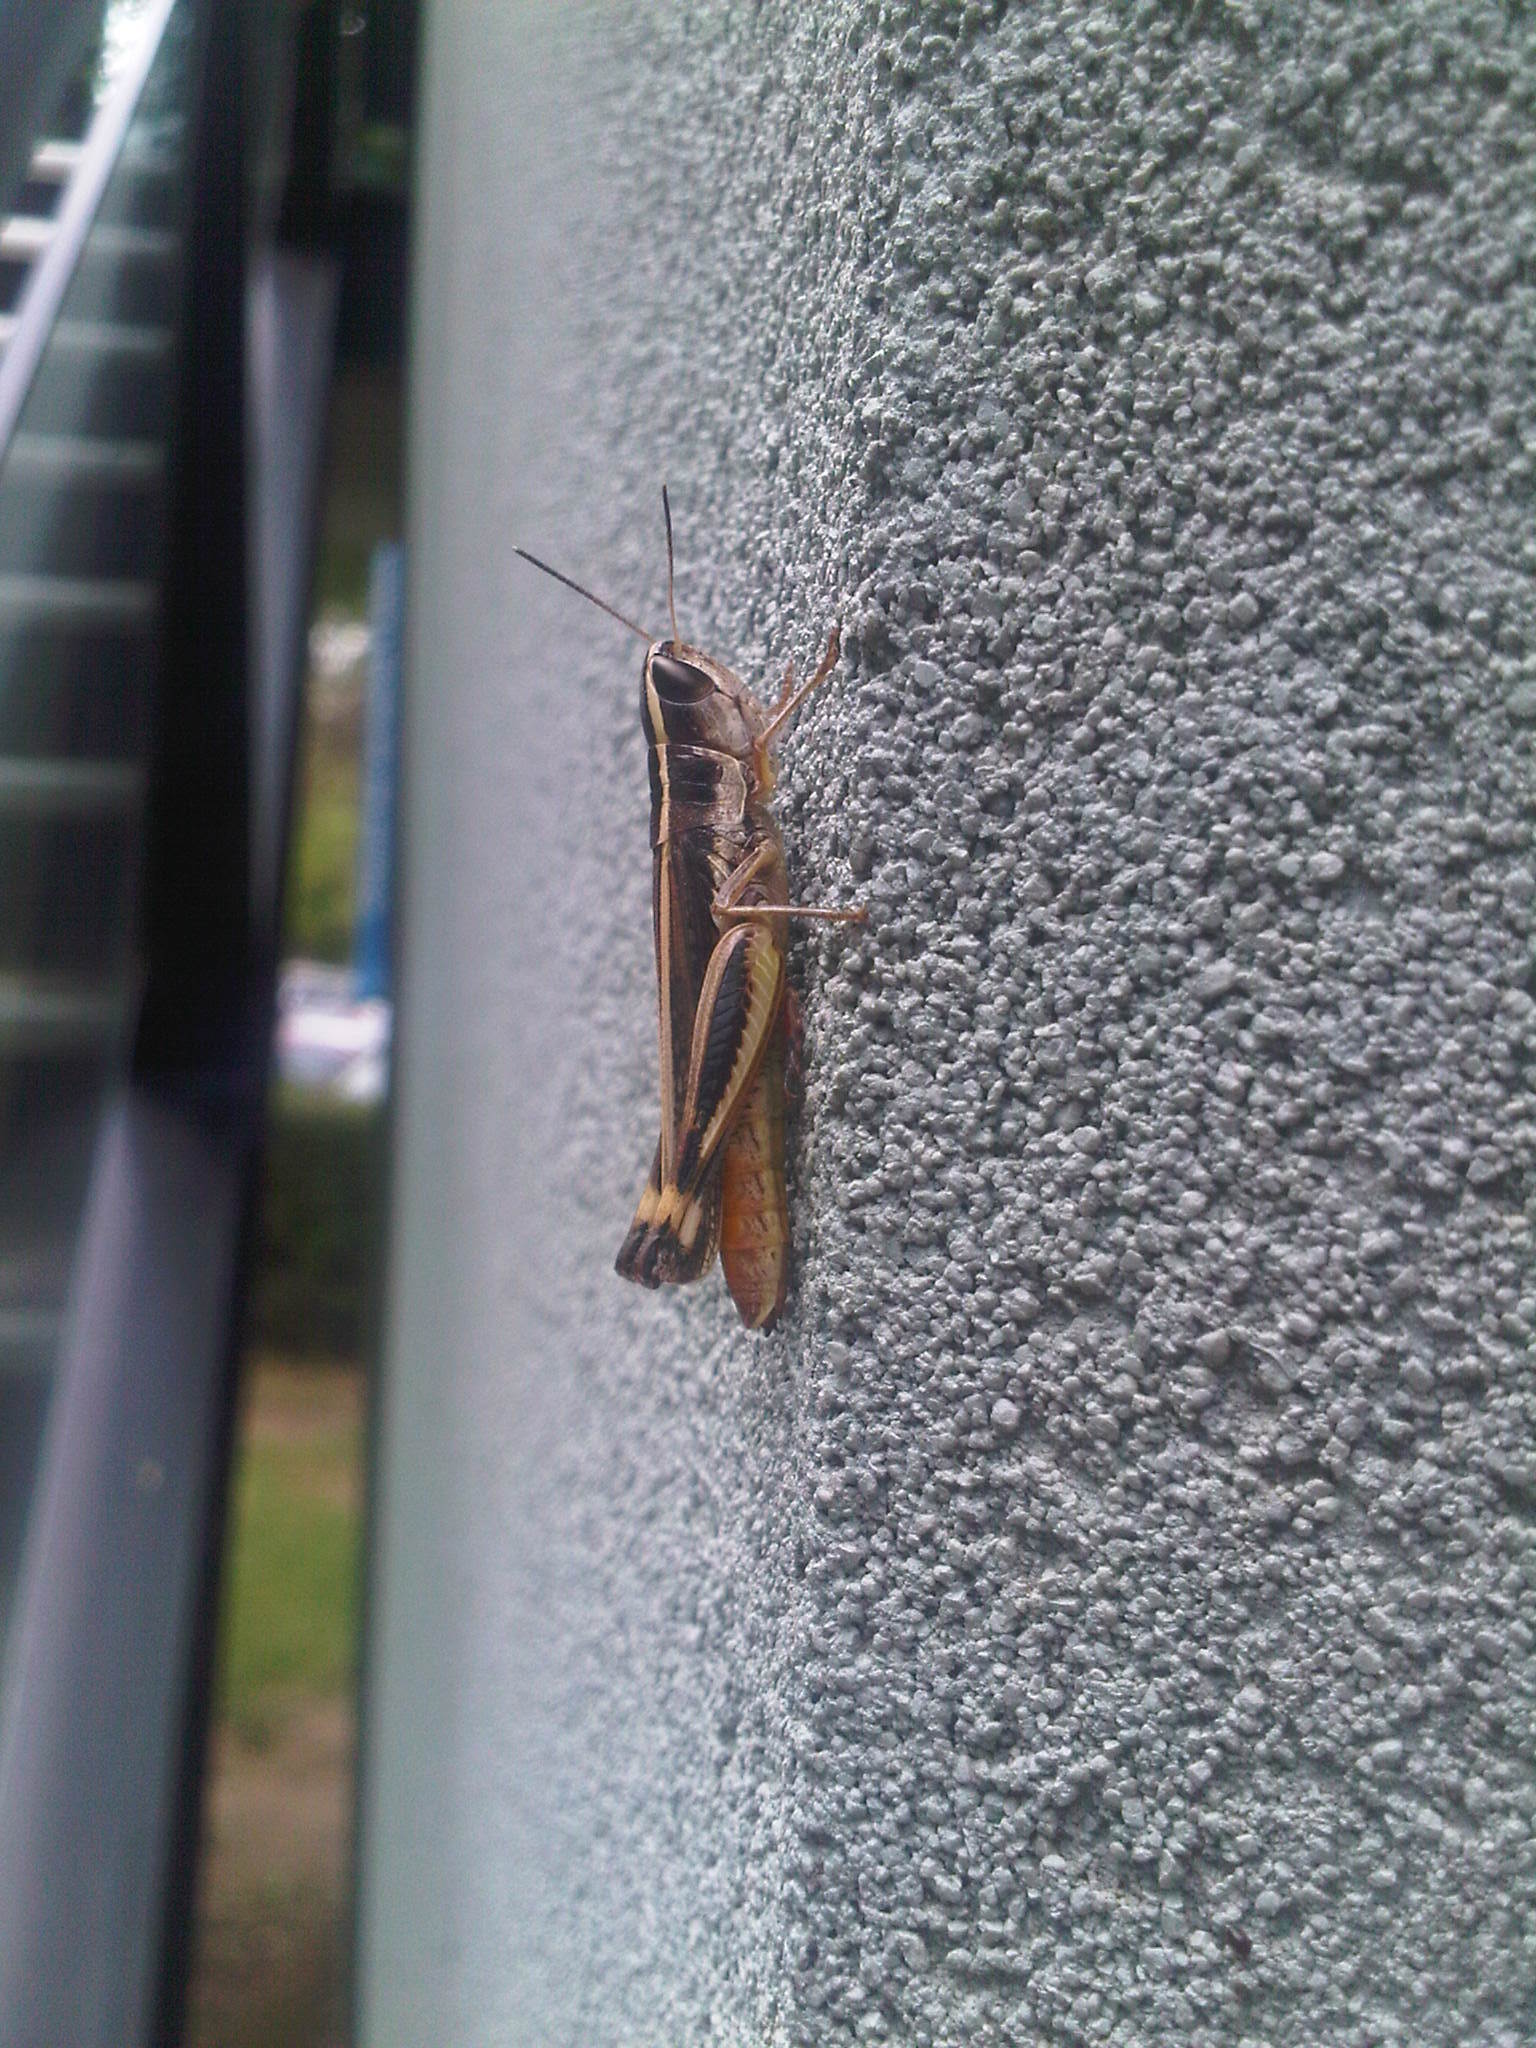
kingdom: Animalia
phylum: Arthropoda
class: Insecta
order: Orthoptera
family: Acrididae
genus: Macrotona
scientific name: Macrotona securiformis
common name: Inland macrotona
